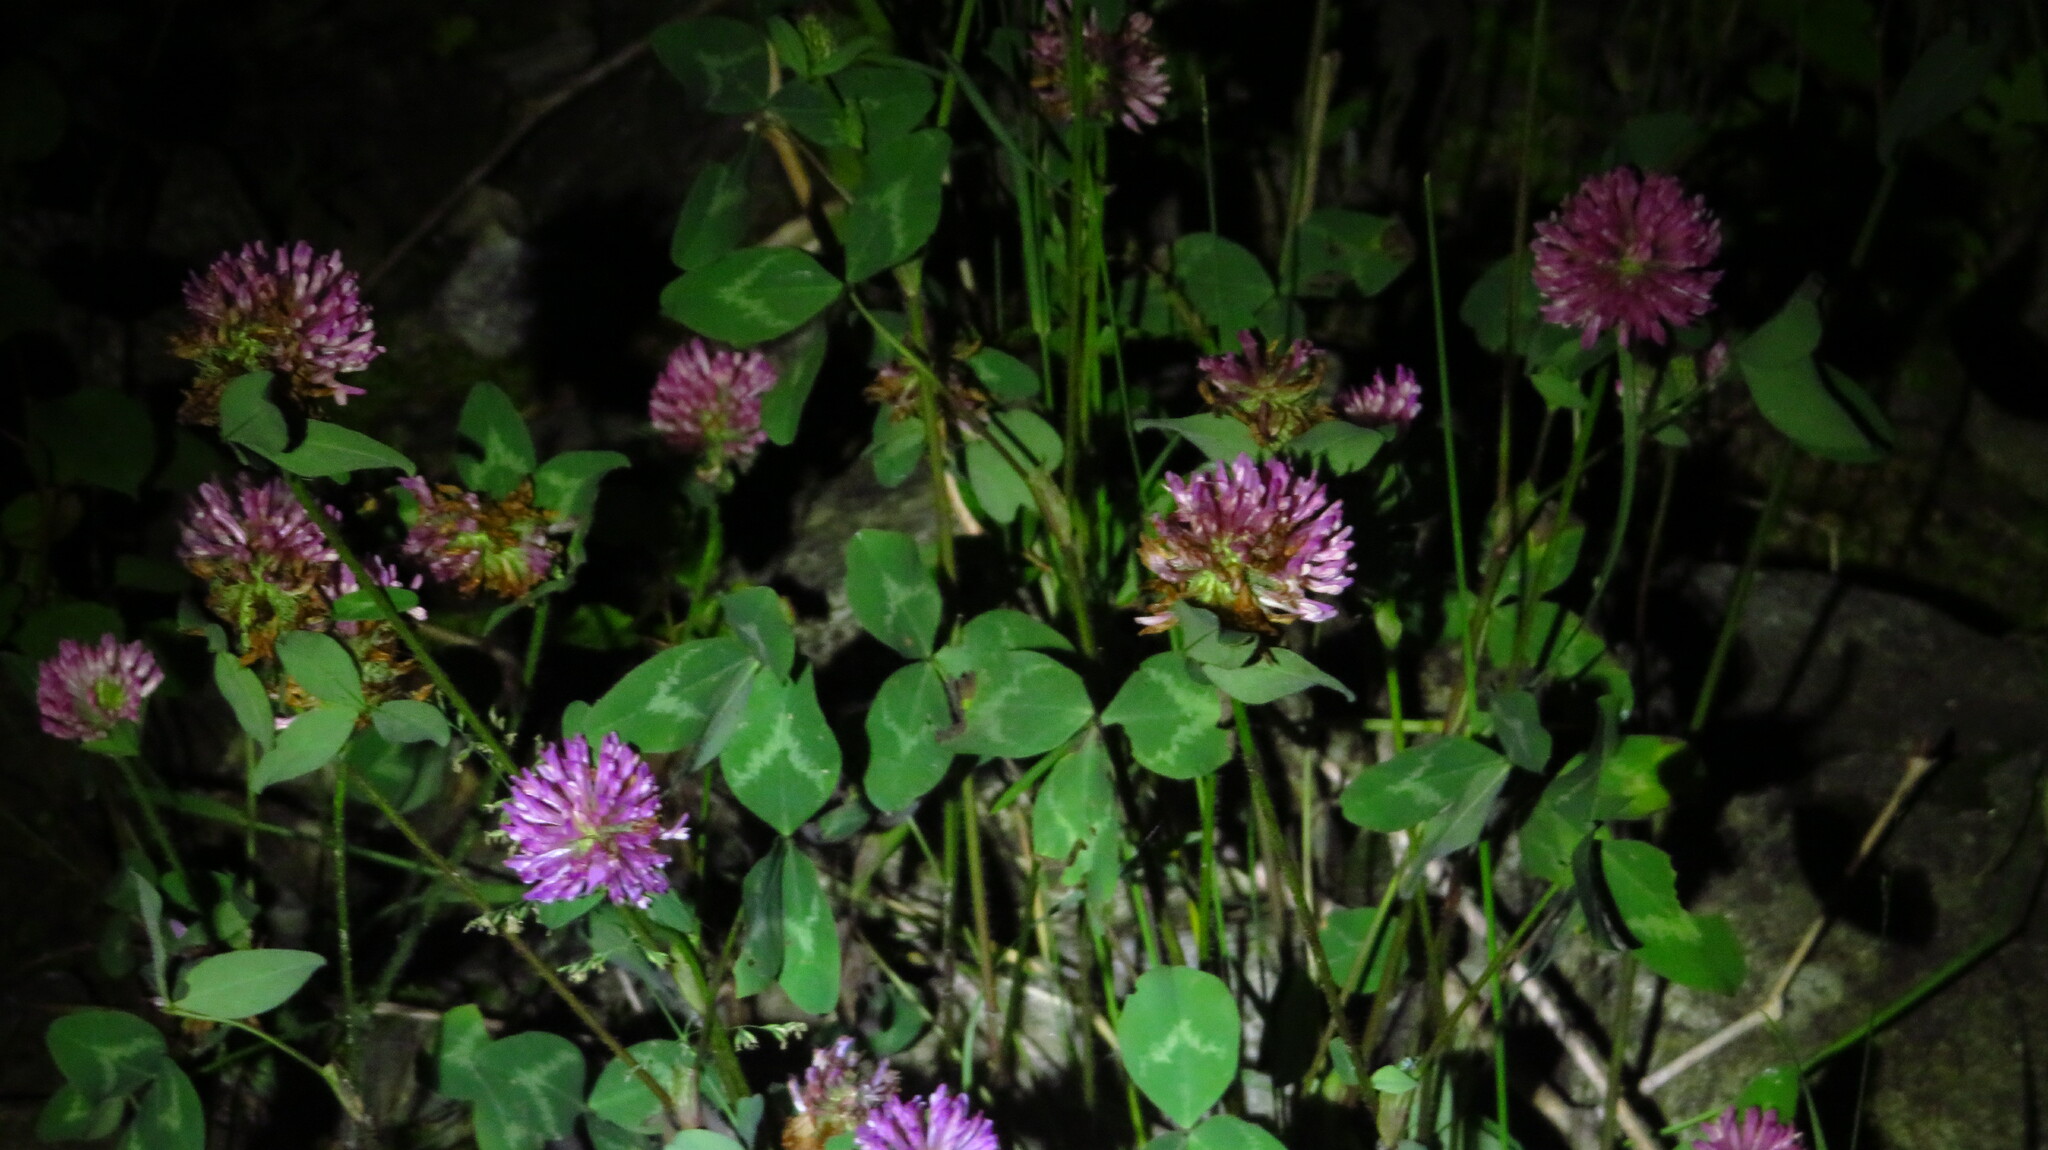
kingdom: Plantae
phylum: Tracheophyta
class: Magnoliopsida
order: Fabales
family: Fabaceae
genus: Trifolium
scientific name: Trifolium pratense
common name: Red clover
